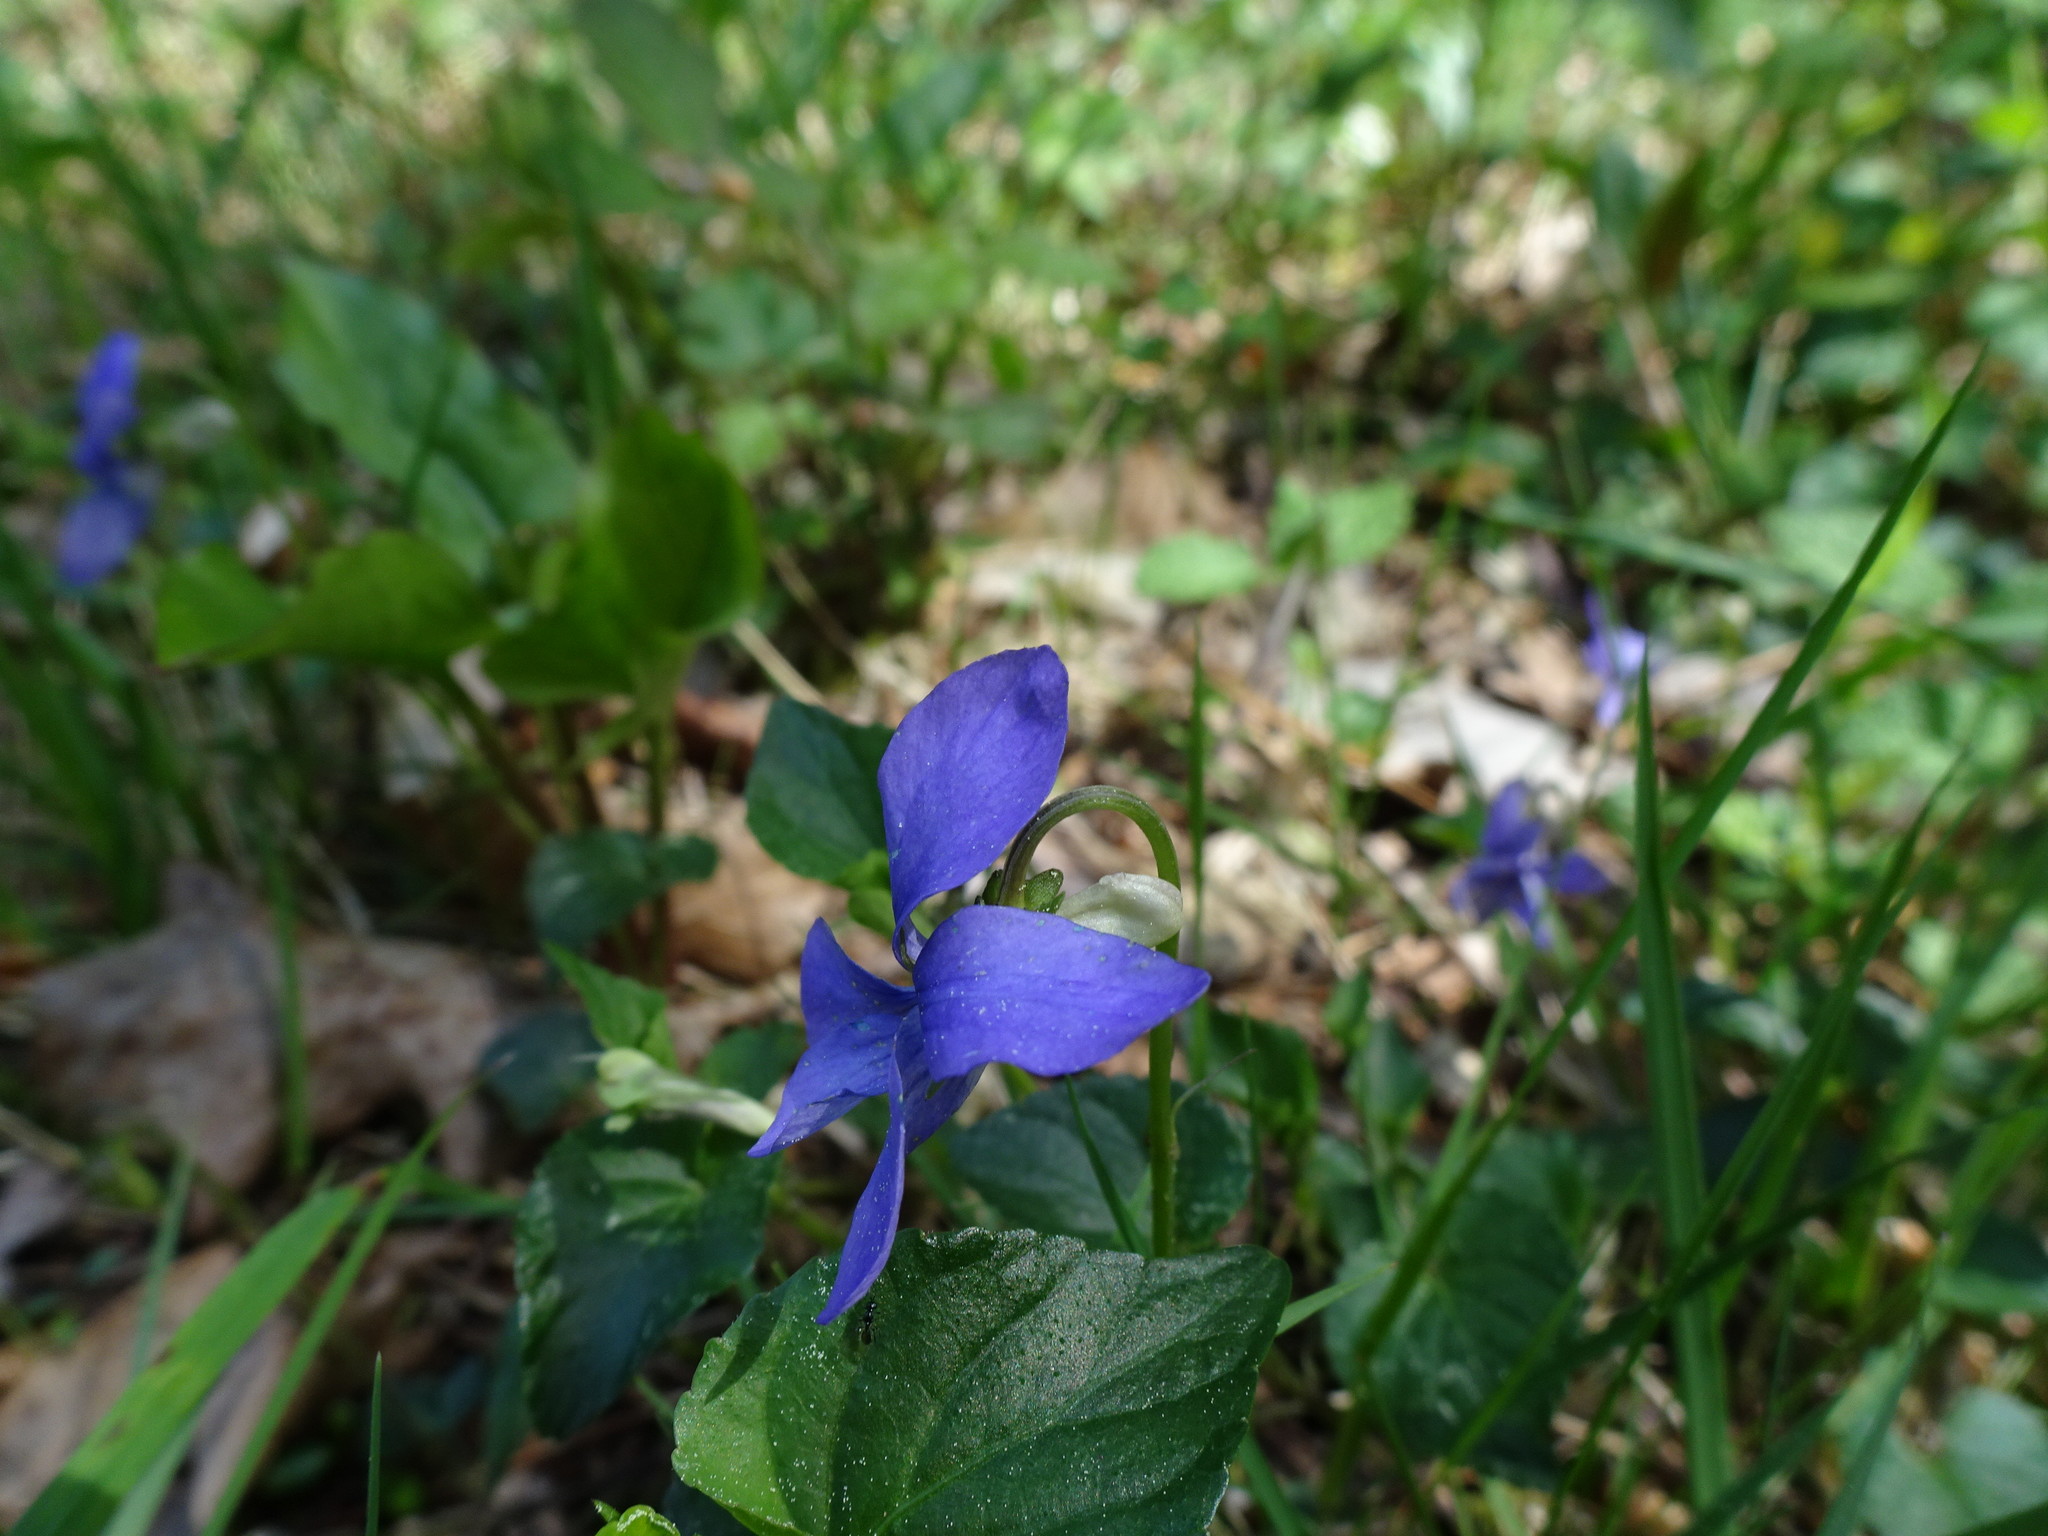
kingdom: Plantae
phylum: Tracheophyta
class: Magnoliopsida
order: Malpighiales
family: Violaceae
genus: Viola
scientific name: Viola riviniana
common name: Common dog-violet
